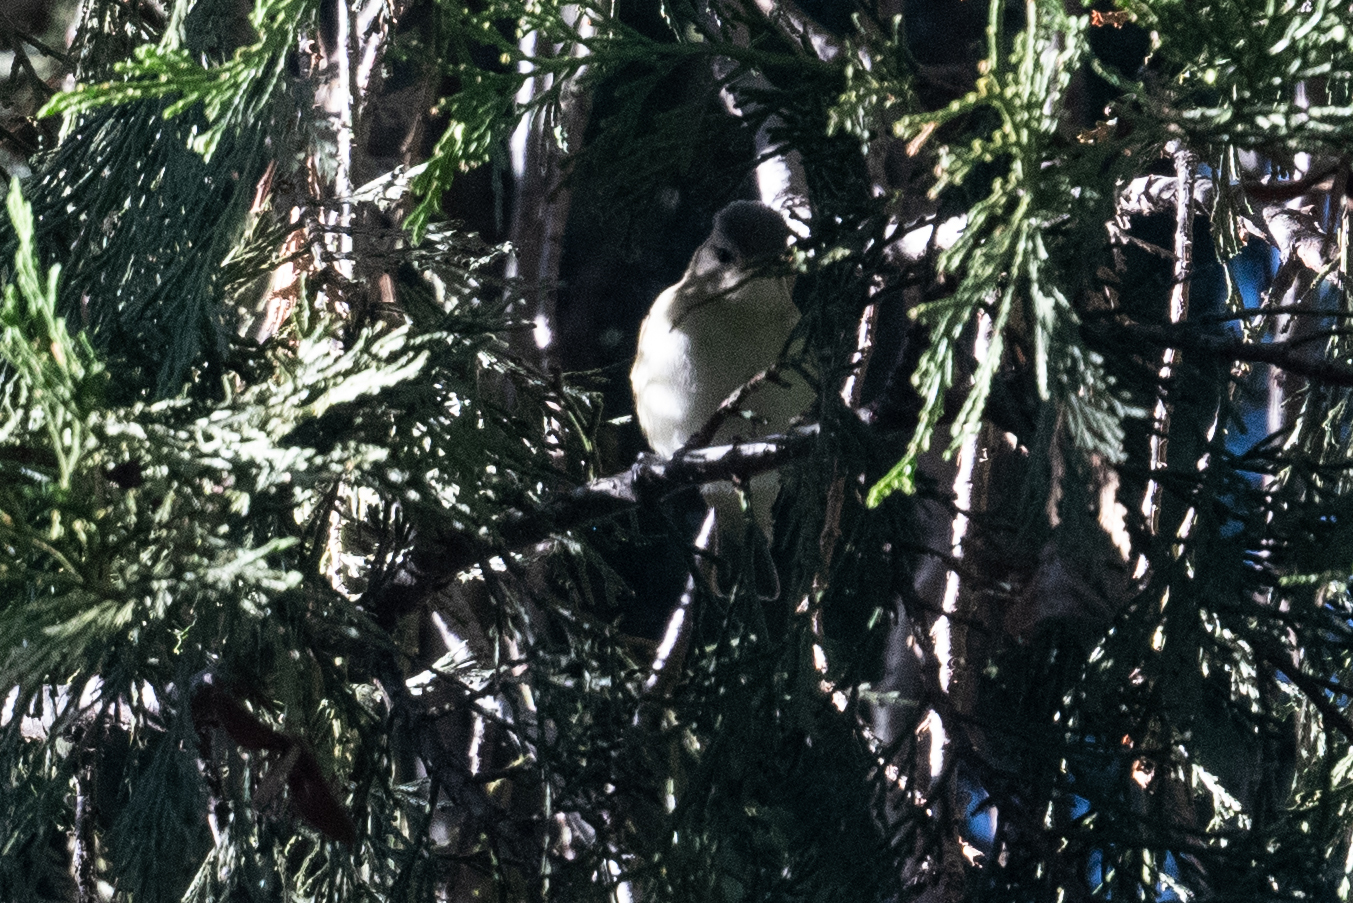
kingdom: Animalia
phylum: Chordata
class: Aves
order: Passeriformes
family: Vireonidae
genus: Vireo
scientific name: Vireo gilvus
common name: Warbling vireo
